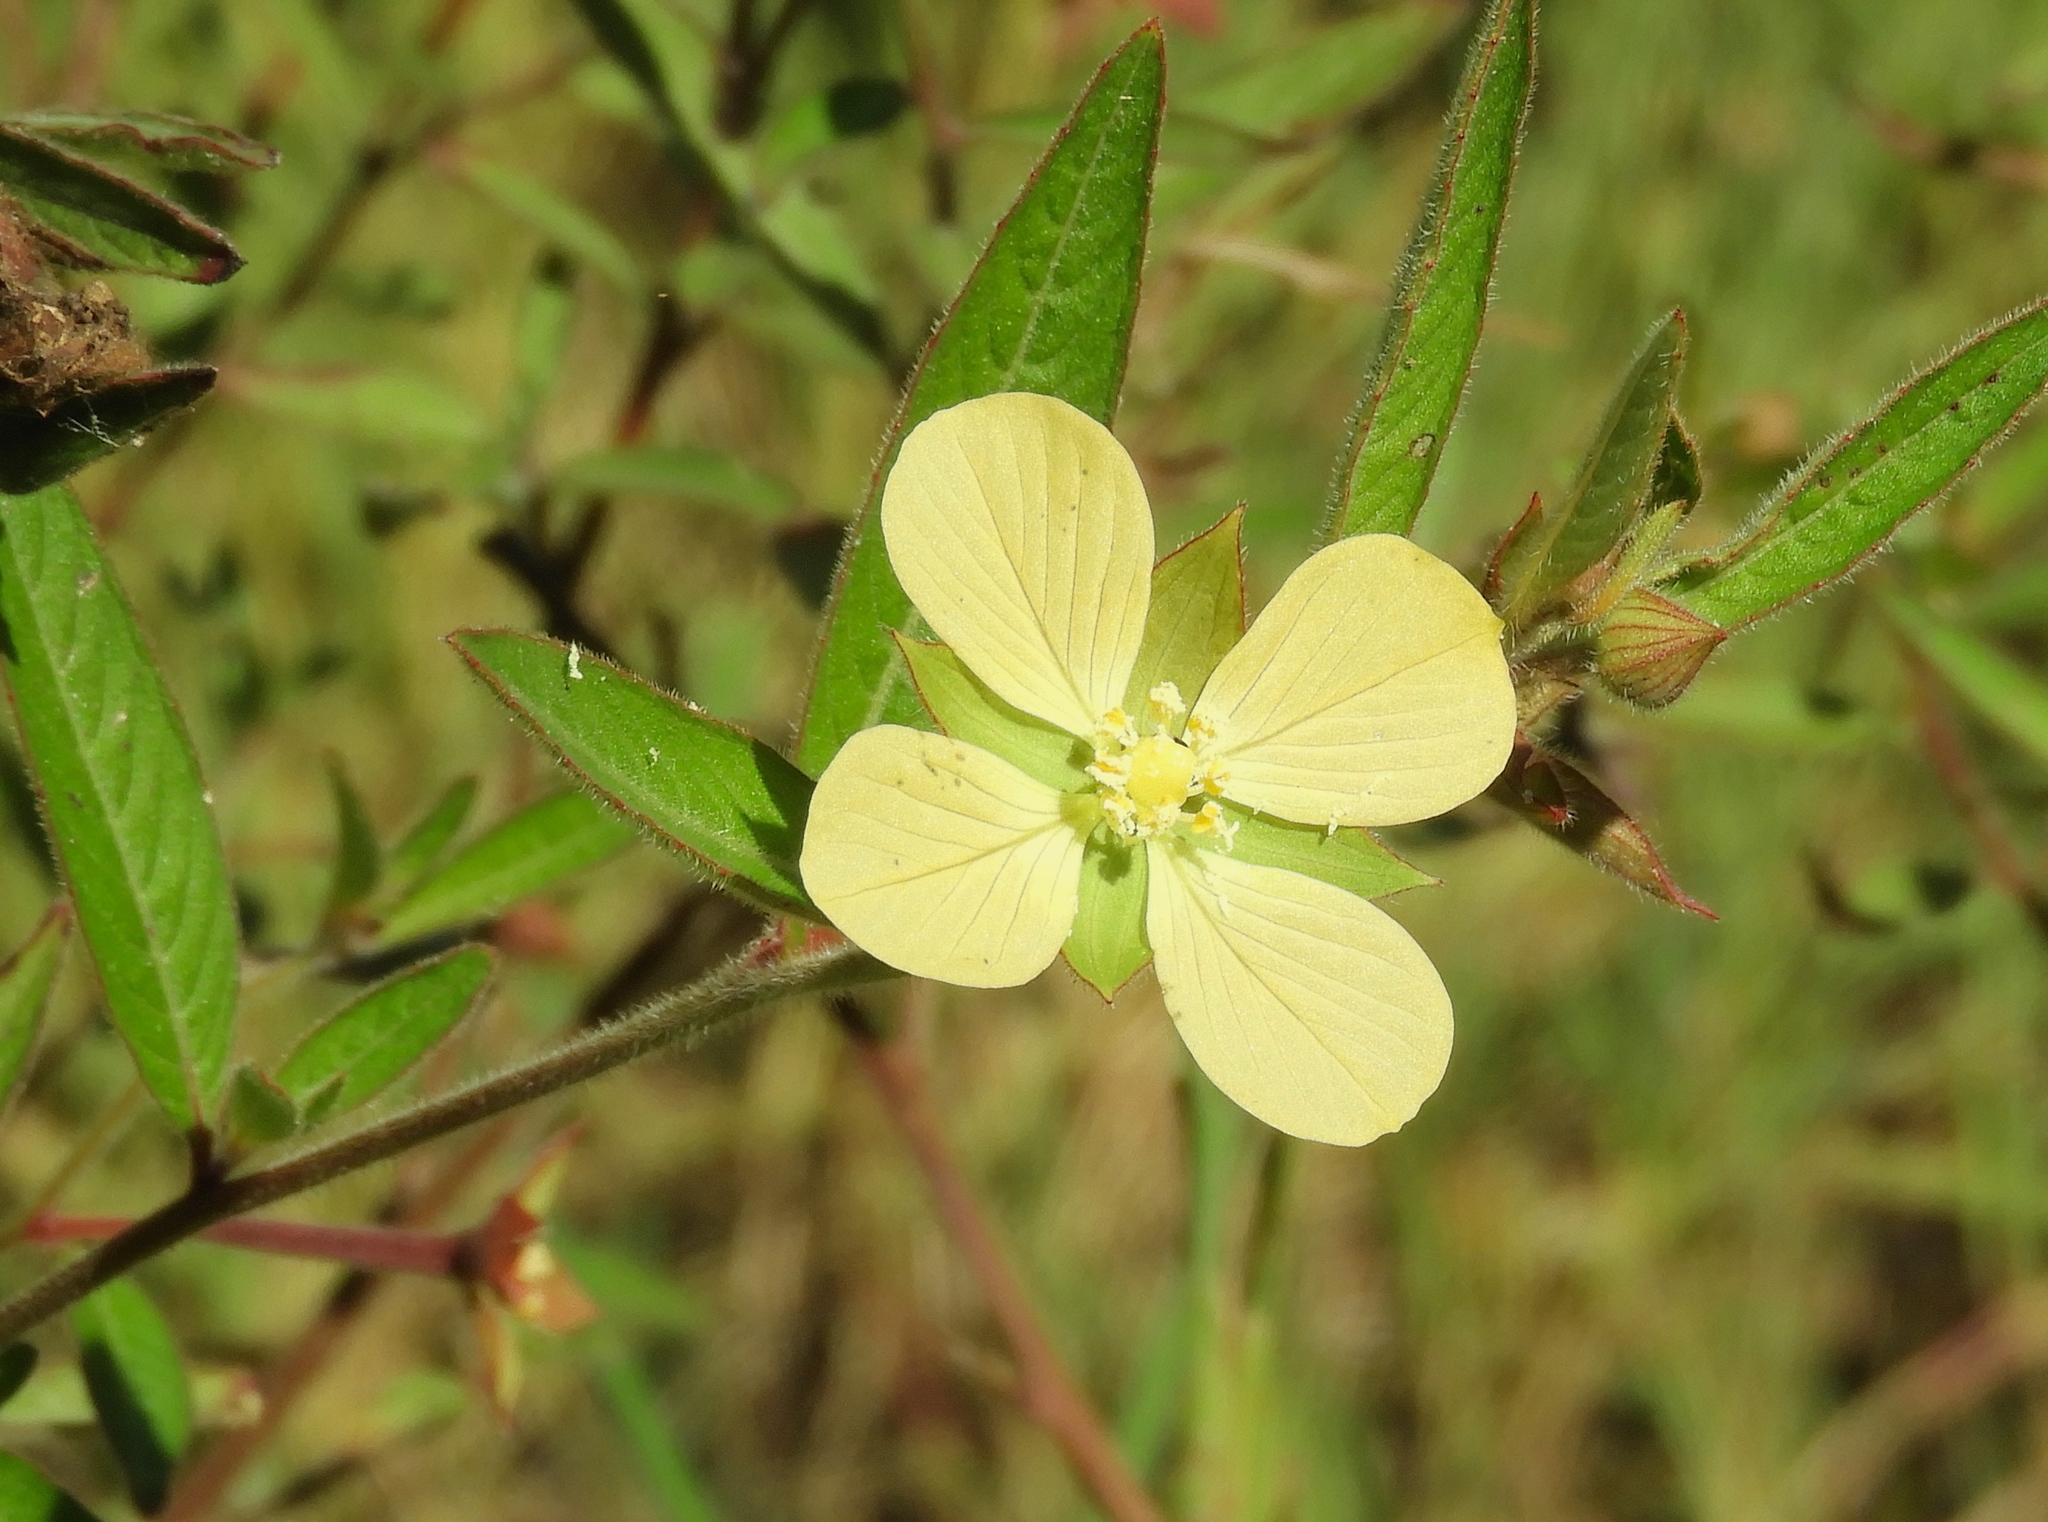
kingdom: Plantae
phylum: Tracheophyta
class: Magnoliopsida
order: Myrtales
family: Onagraceae
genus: Ludwigia
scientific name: Ludwigia octovalvis
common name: Water-primrose
